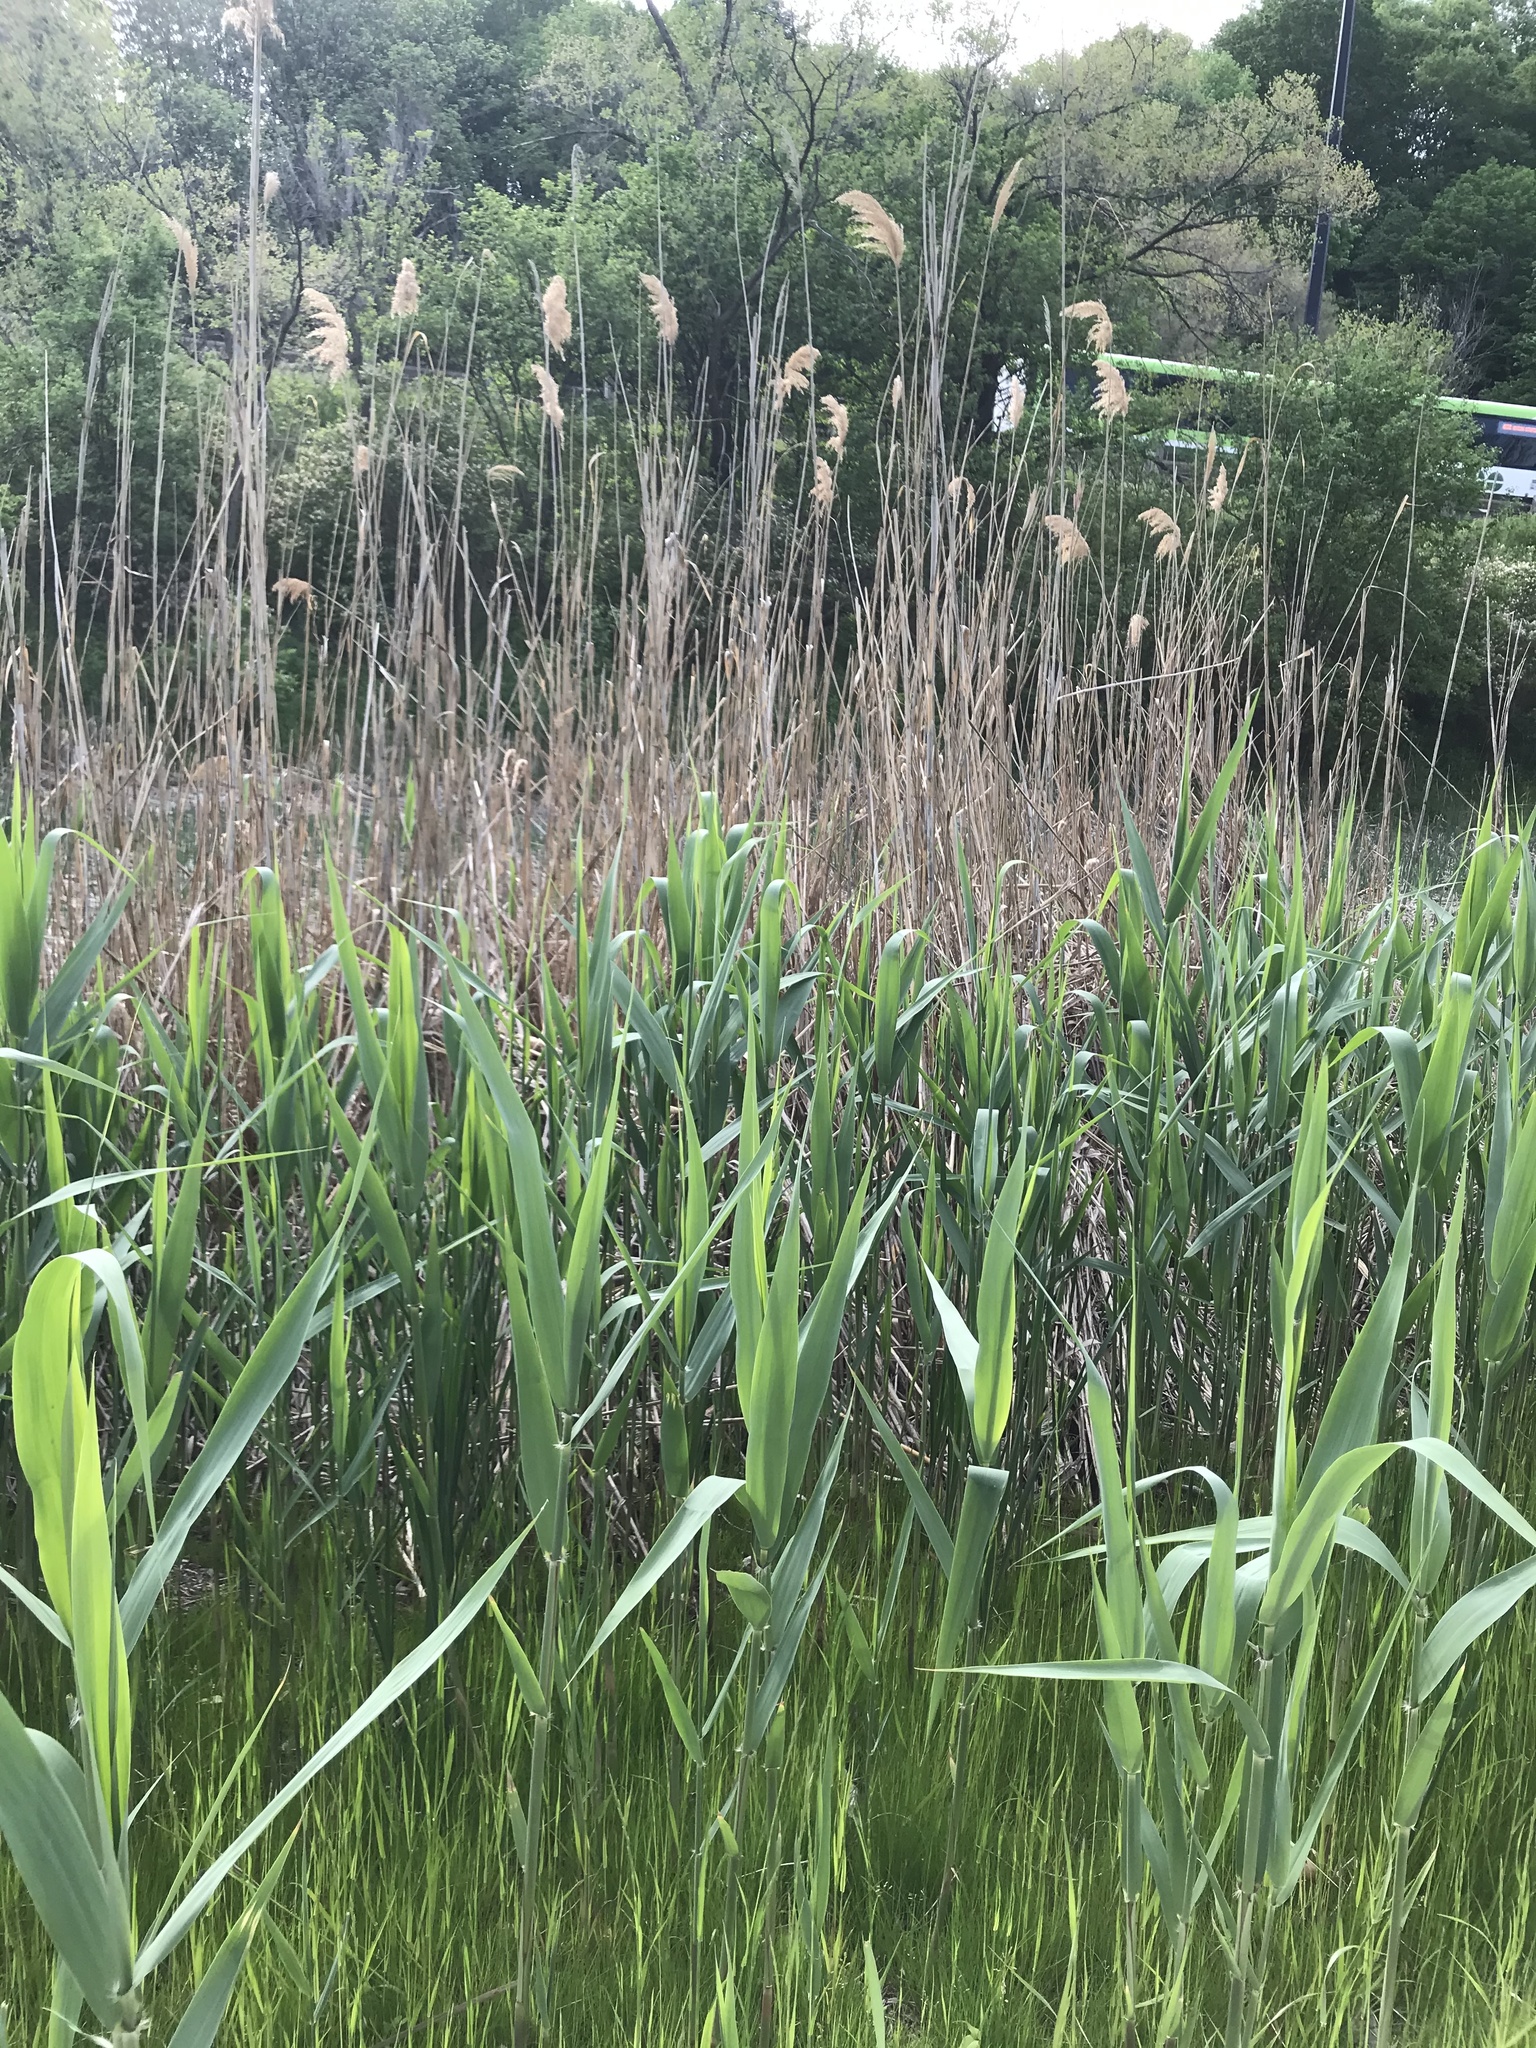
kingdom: Plantae
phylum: Tracheophyta
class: Liliopsida
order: Poales
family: Poaceae
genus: Phragmites
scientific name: Phragmites australis
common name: Common reed
